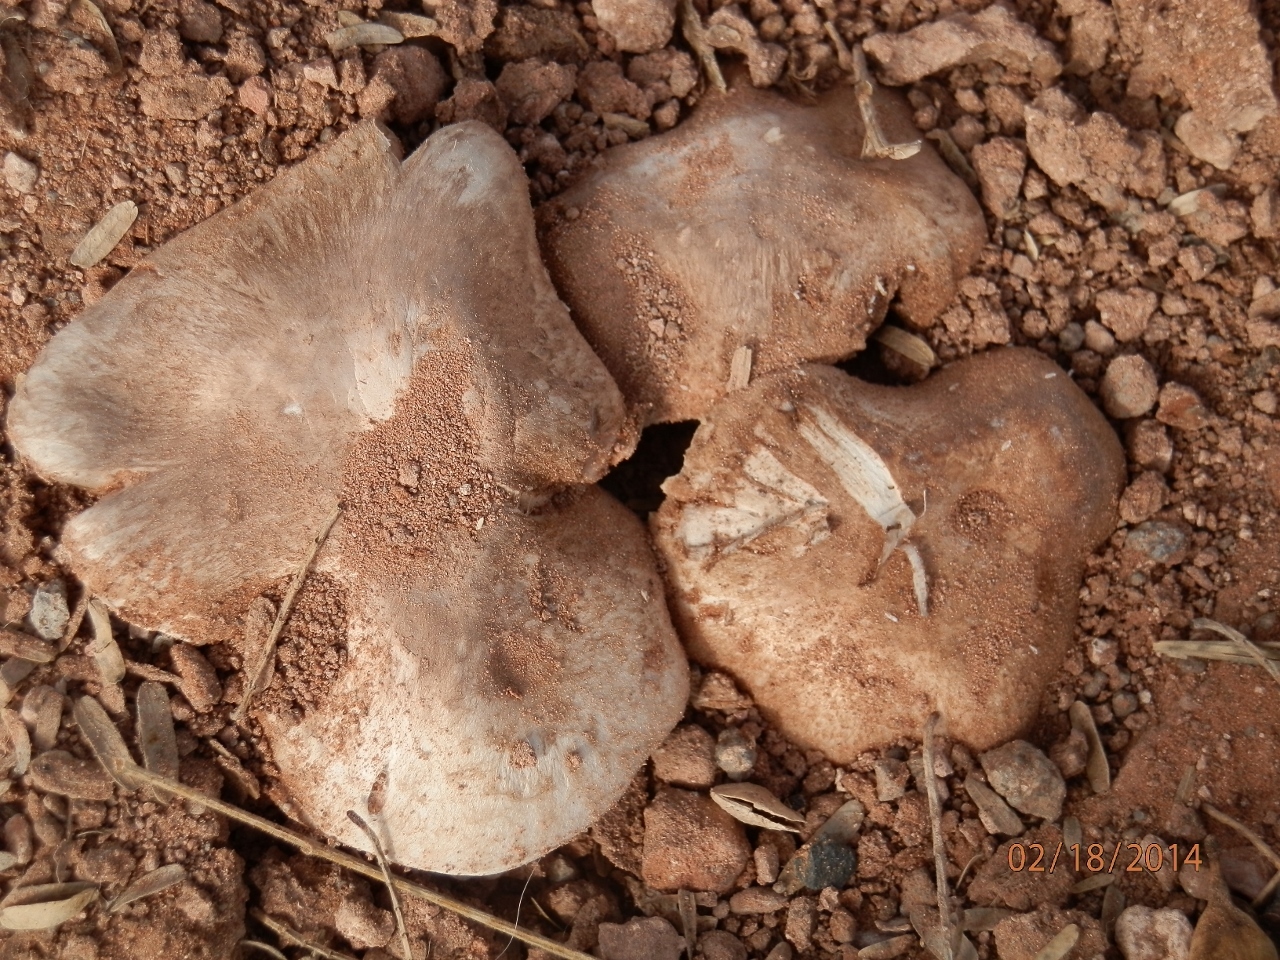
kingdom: Fungi
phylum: Basidiomycota
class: Agaricomycetes
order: Agaricales
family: Agaricaceae
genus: Agaricus
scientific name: Agaricus bitorquis
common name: Pavement mushroom
